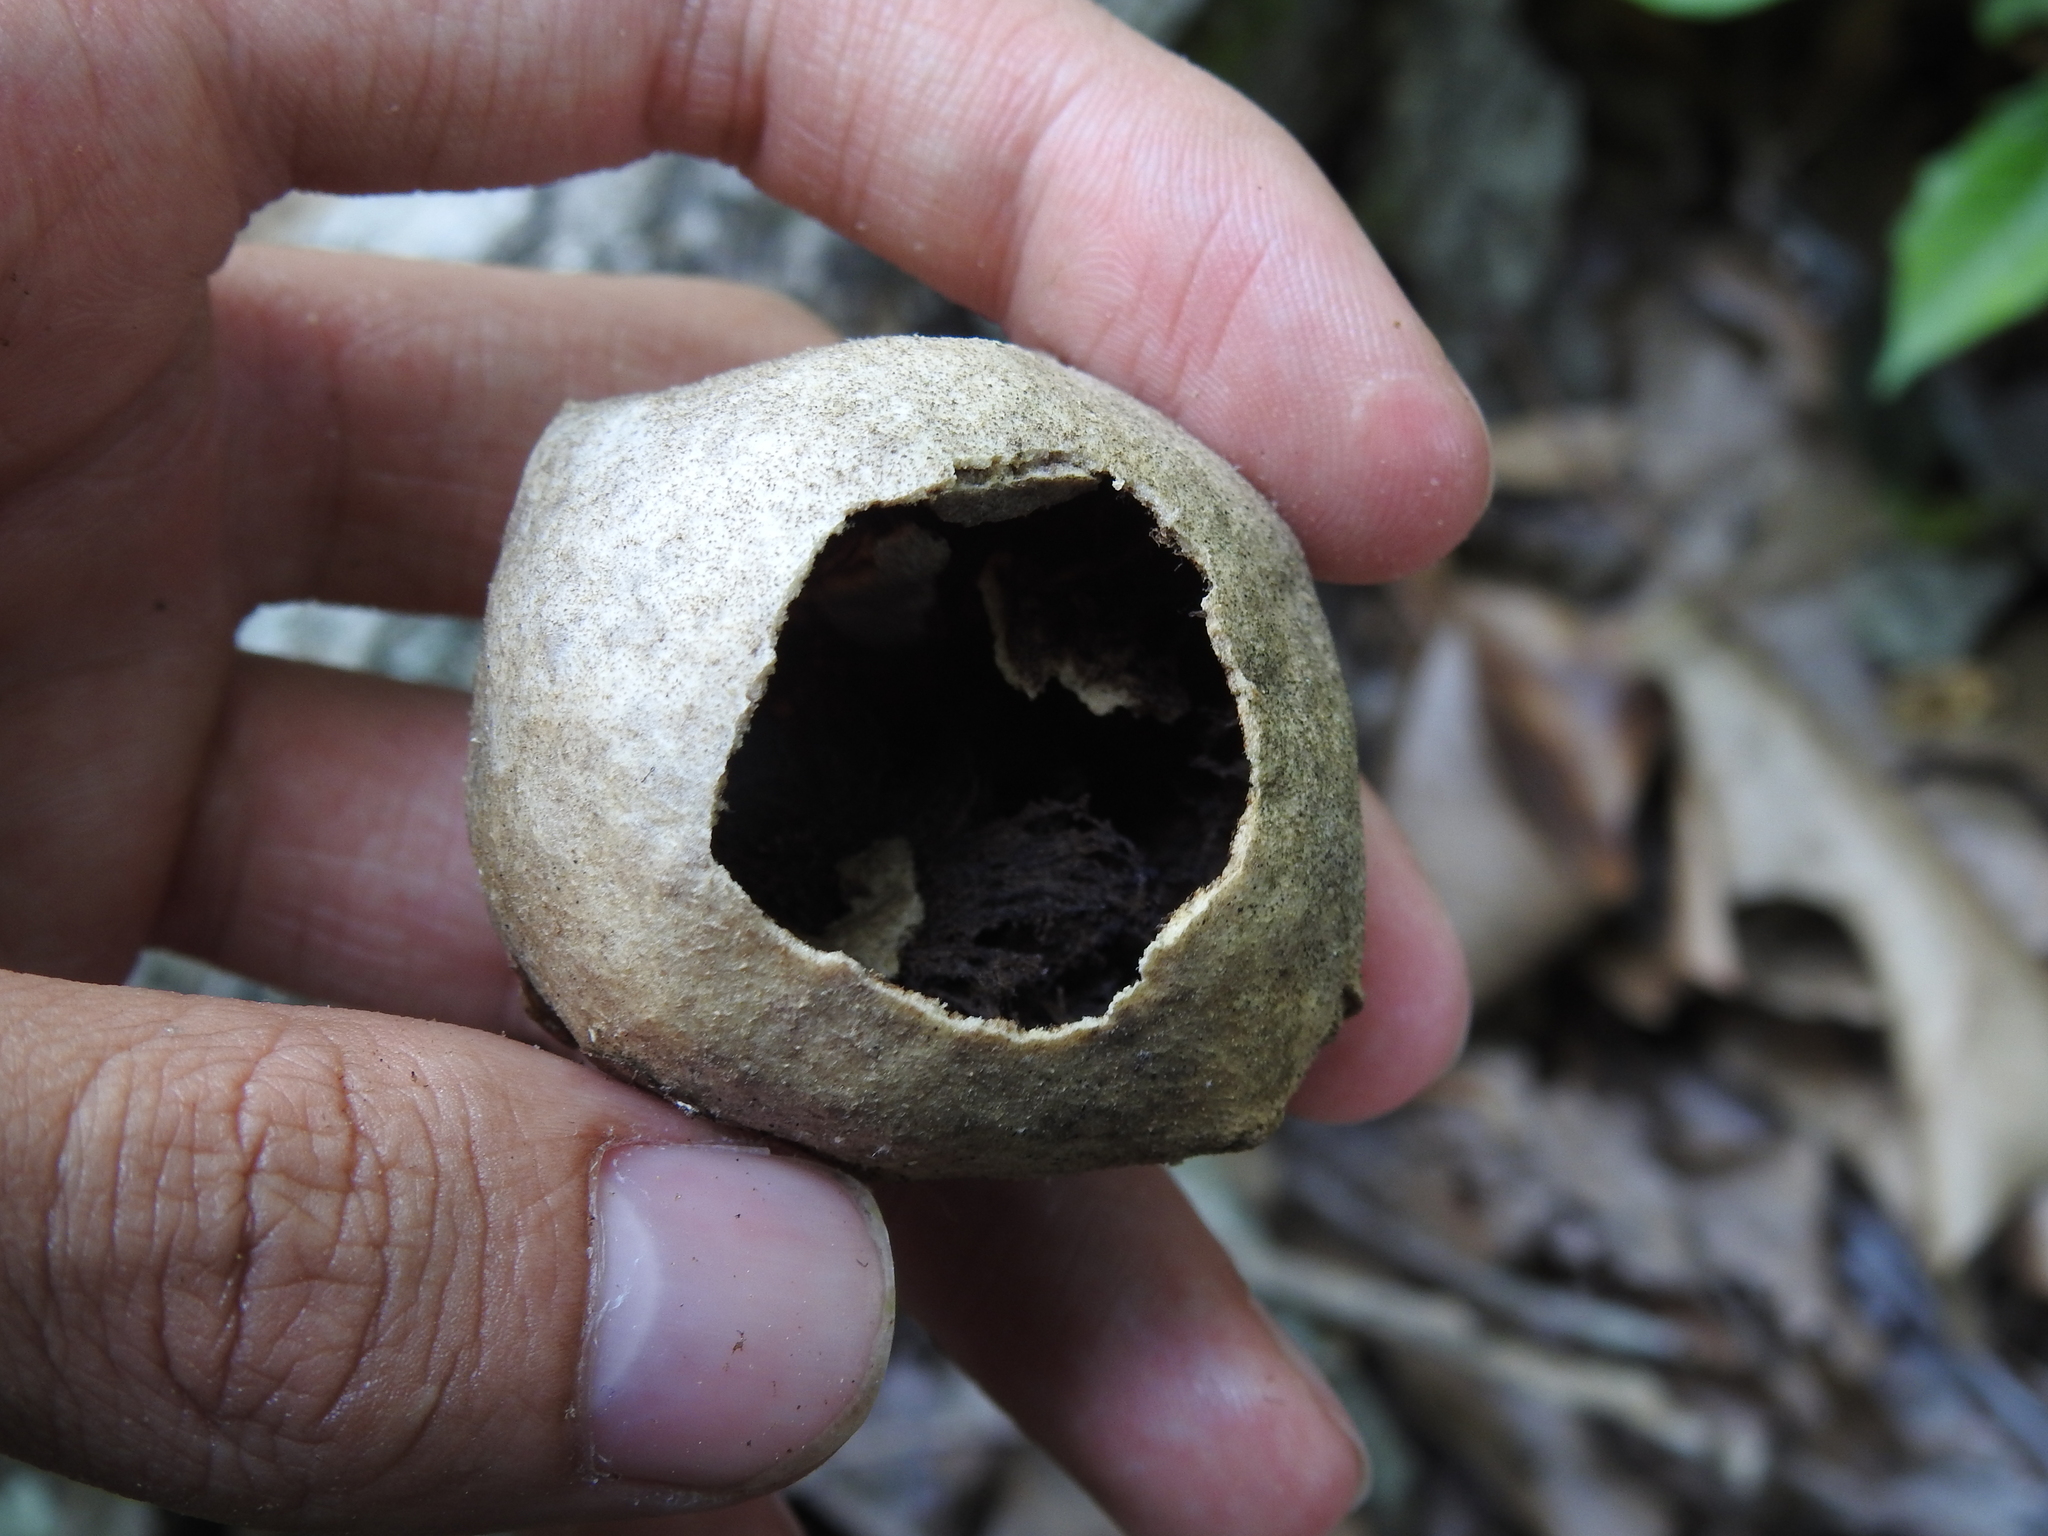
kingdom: Animalia
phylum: Arthropoda
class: Insecta
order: Hymenoptera
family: Cynipidae
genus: Amphibolips
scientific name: Amphibolips
